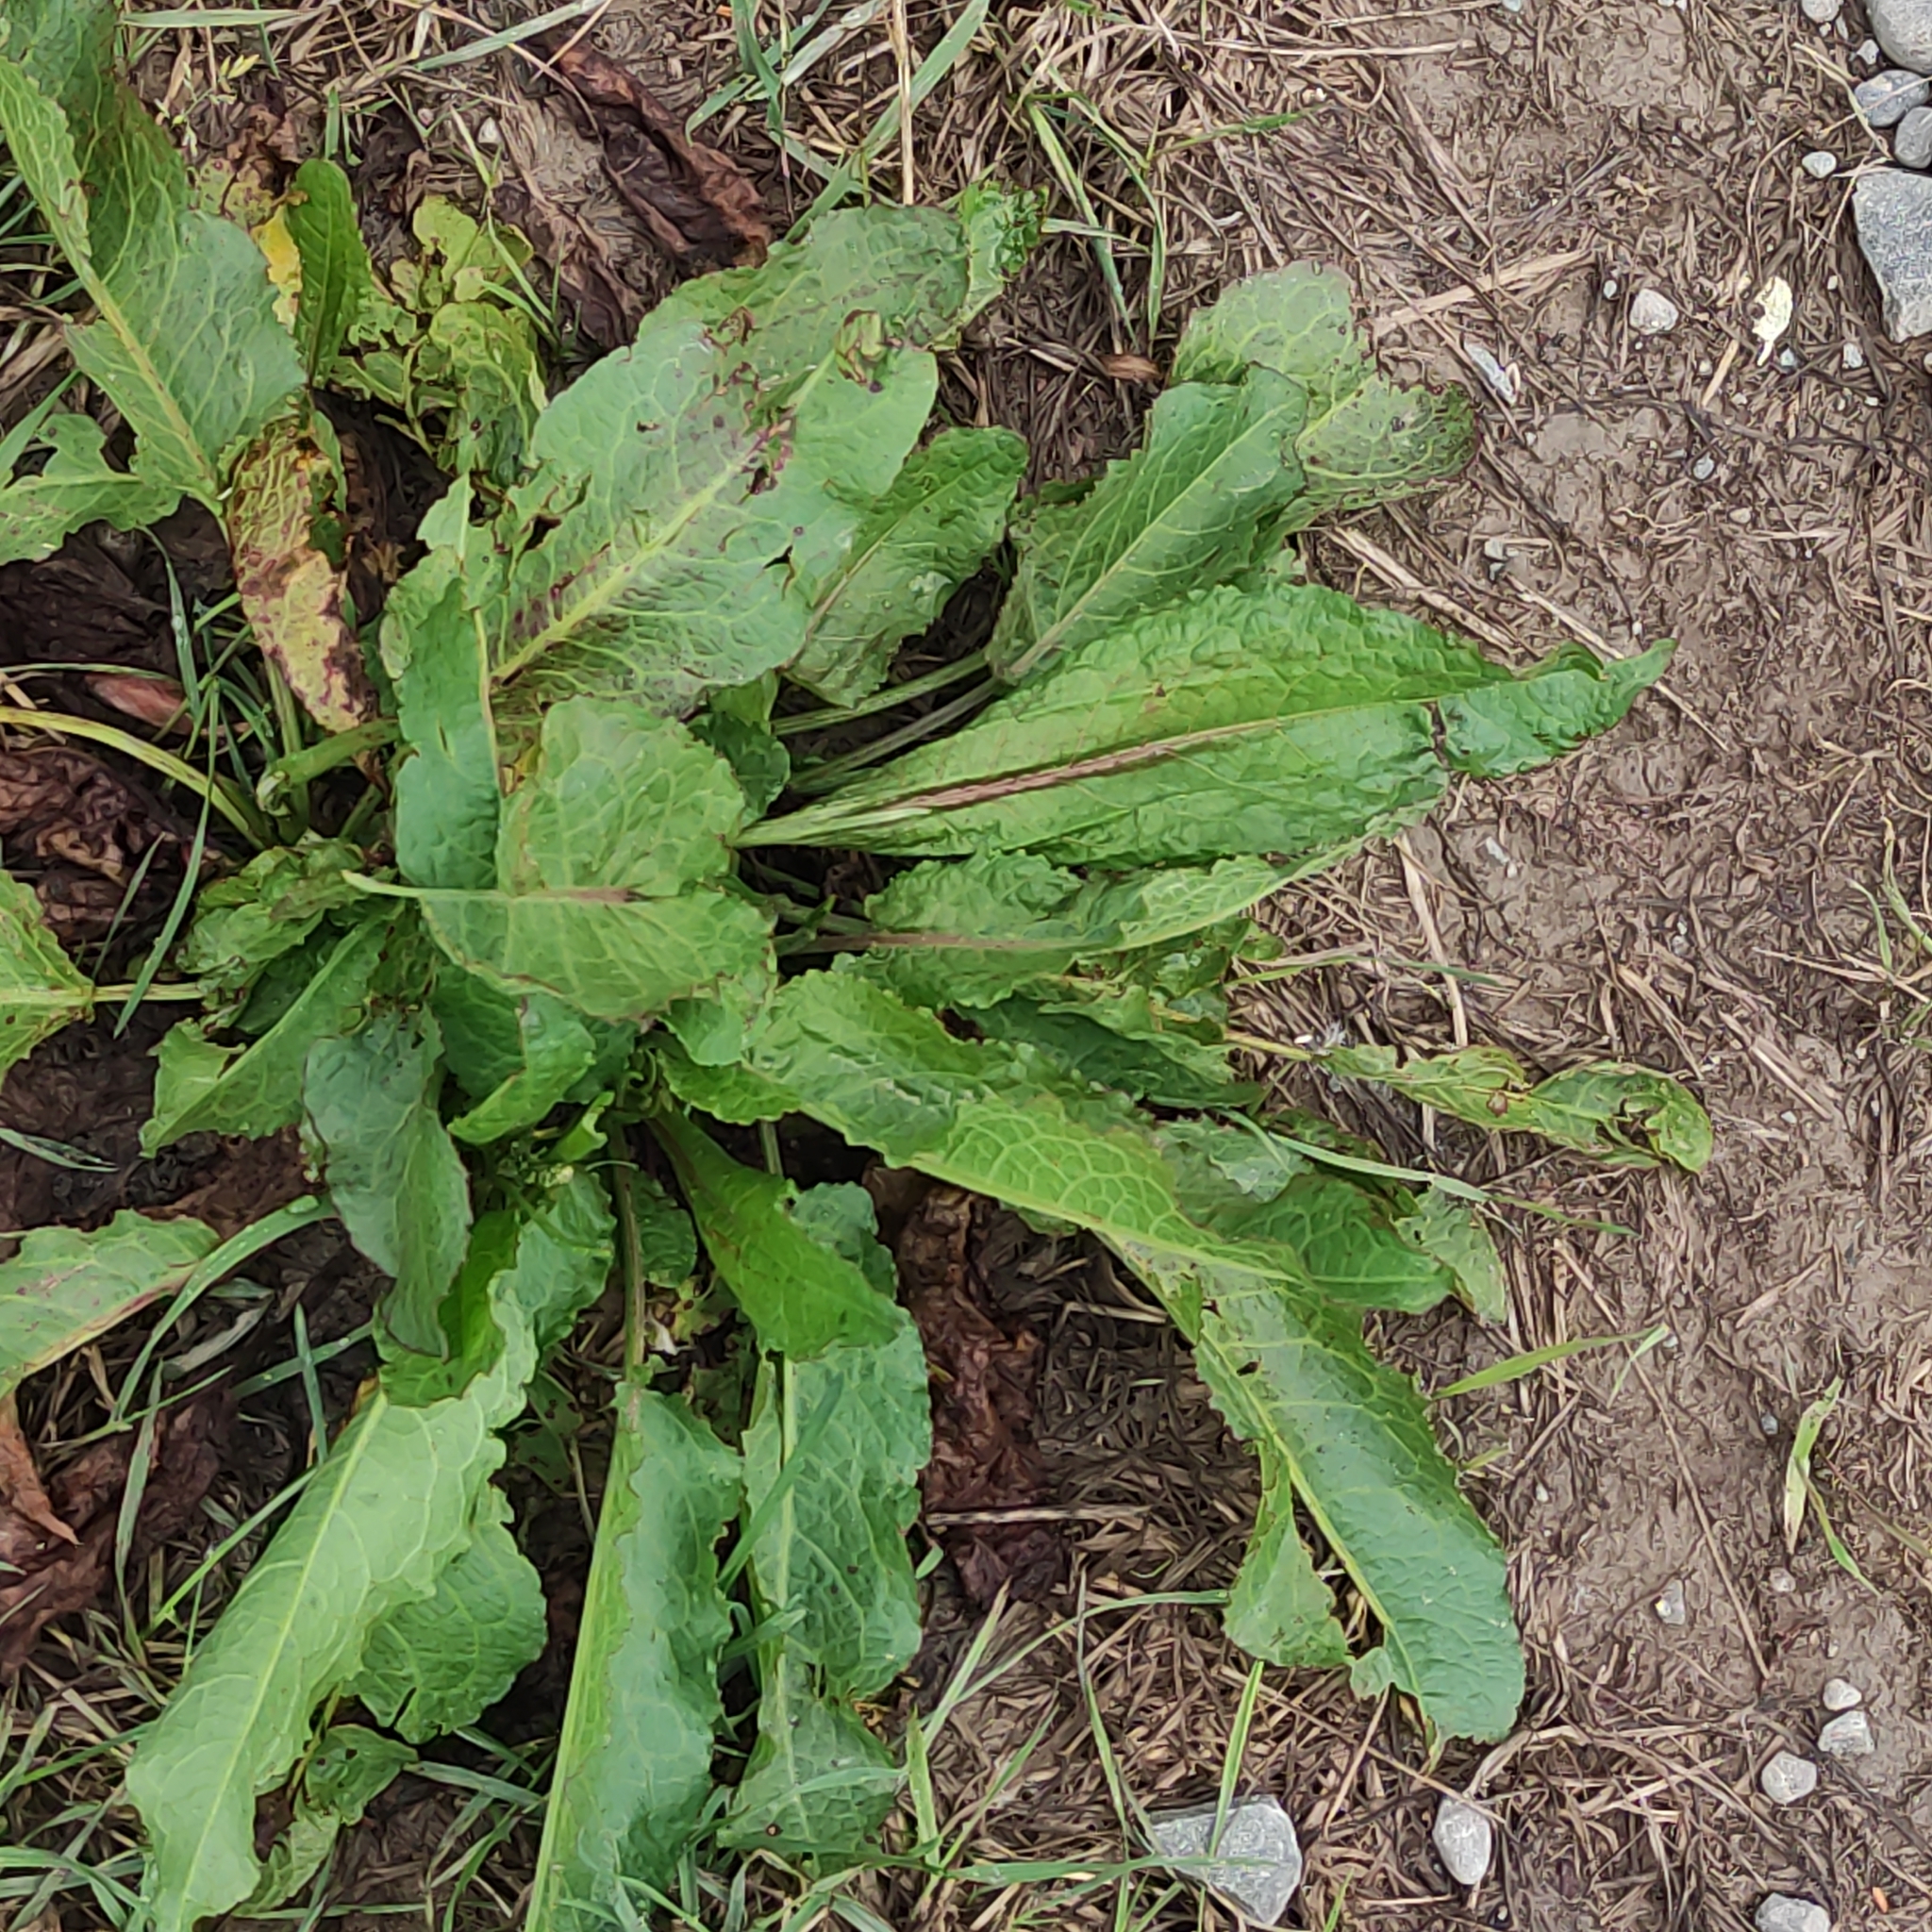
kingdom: Plantae
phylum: Tracheophyta
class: Magnoliopsida
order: Caryophyllales
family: Polygonaceae
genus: Rumex
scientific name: Rumex obtusifolius
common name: Bitter dock
